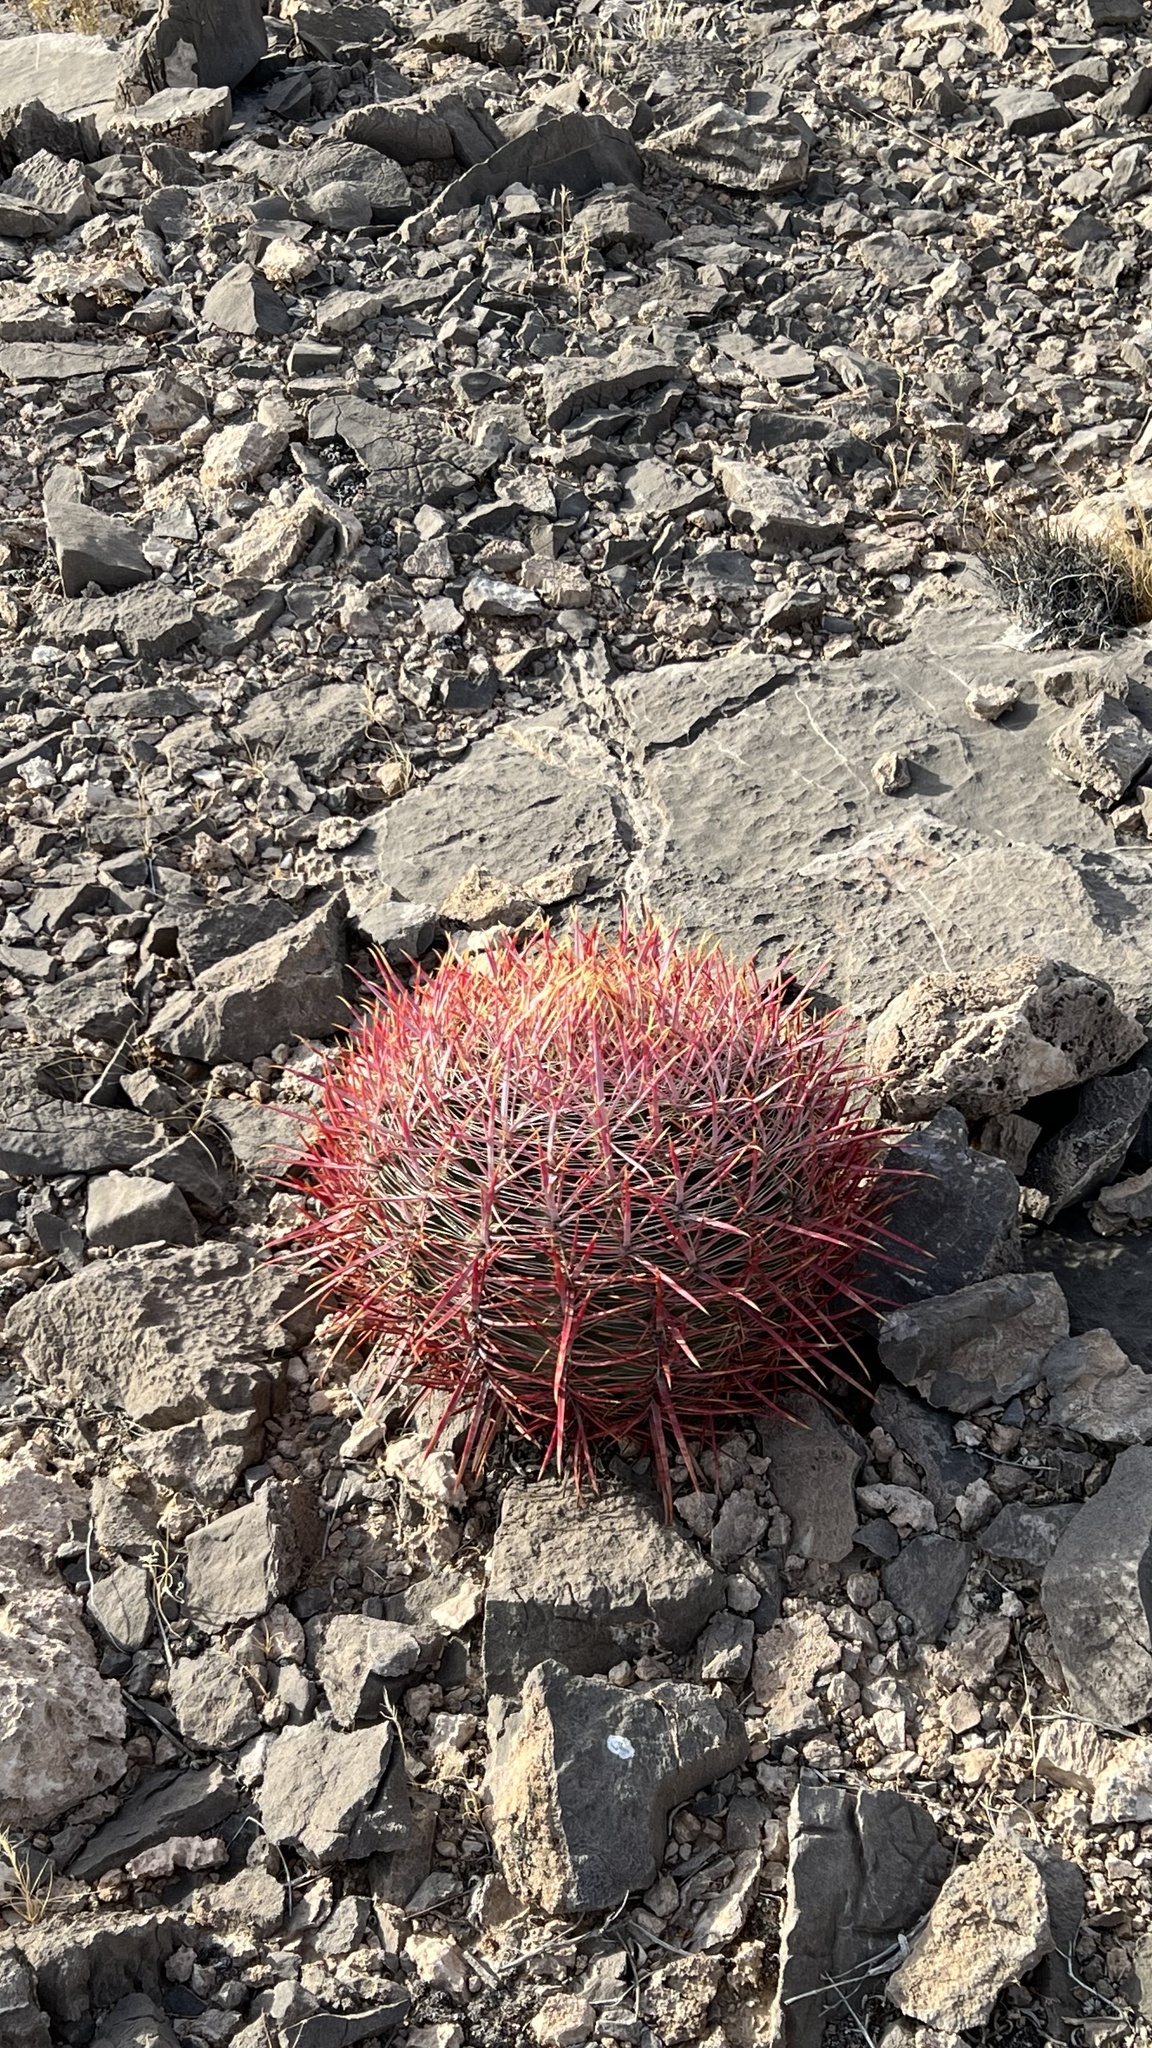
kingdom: Plantae
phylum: Tracheophyta
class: Magnoliopsida
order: Caryophyllales
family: Cactaceae
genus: Ferocactus
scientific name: Ferocactus cylindraceus
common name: California barrel cactus
